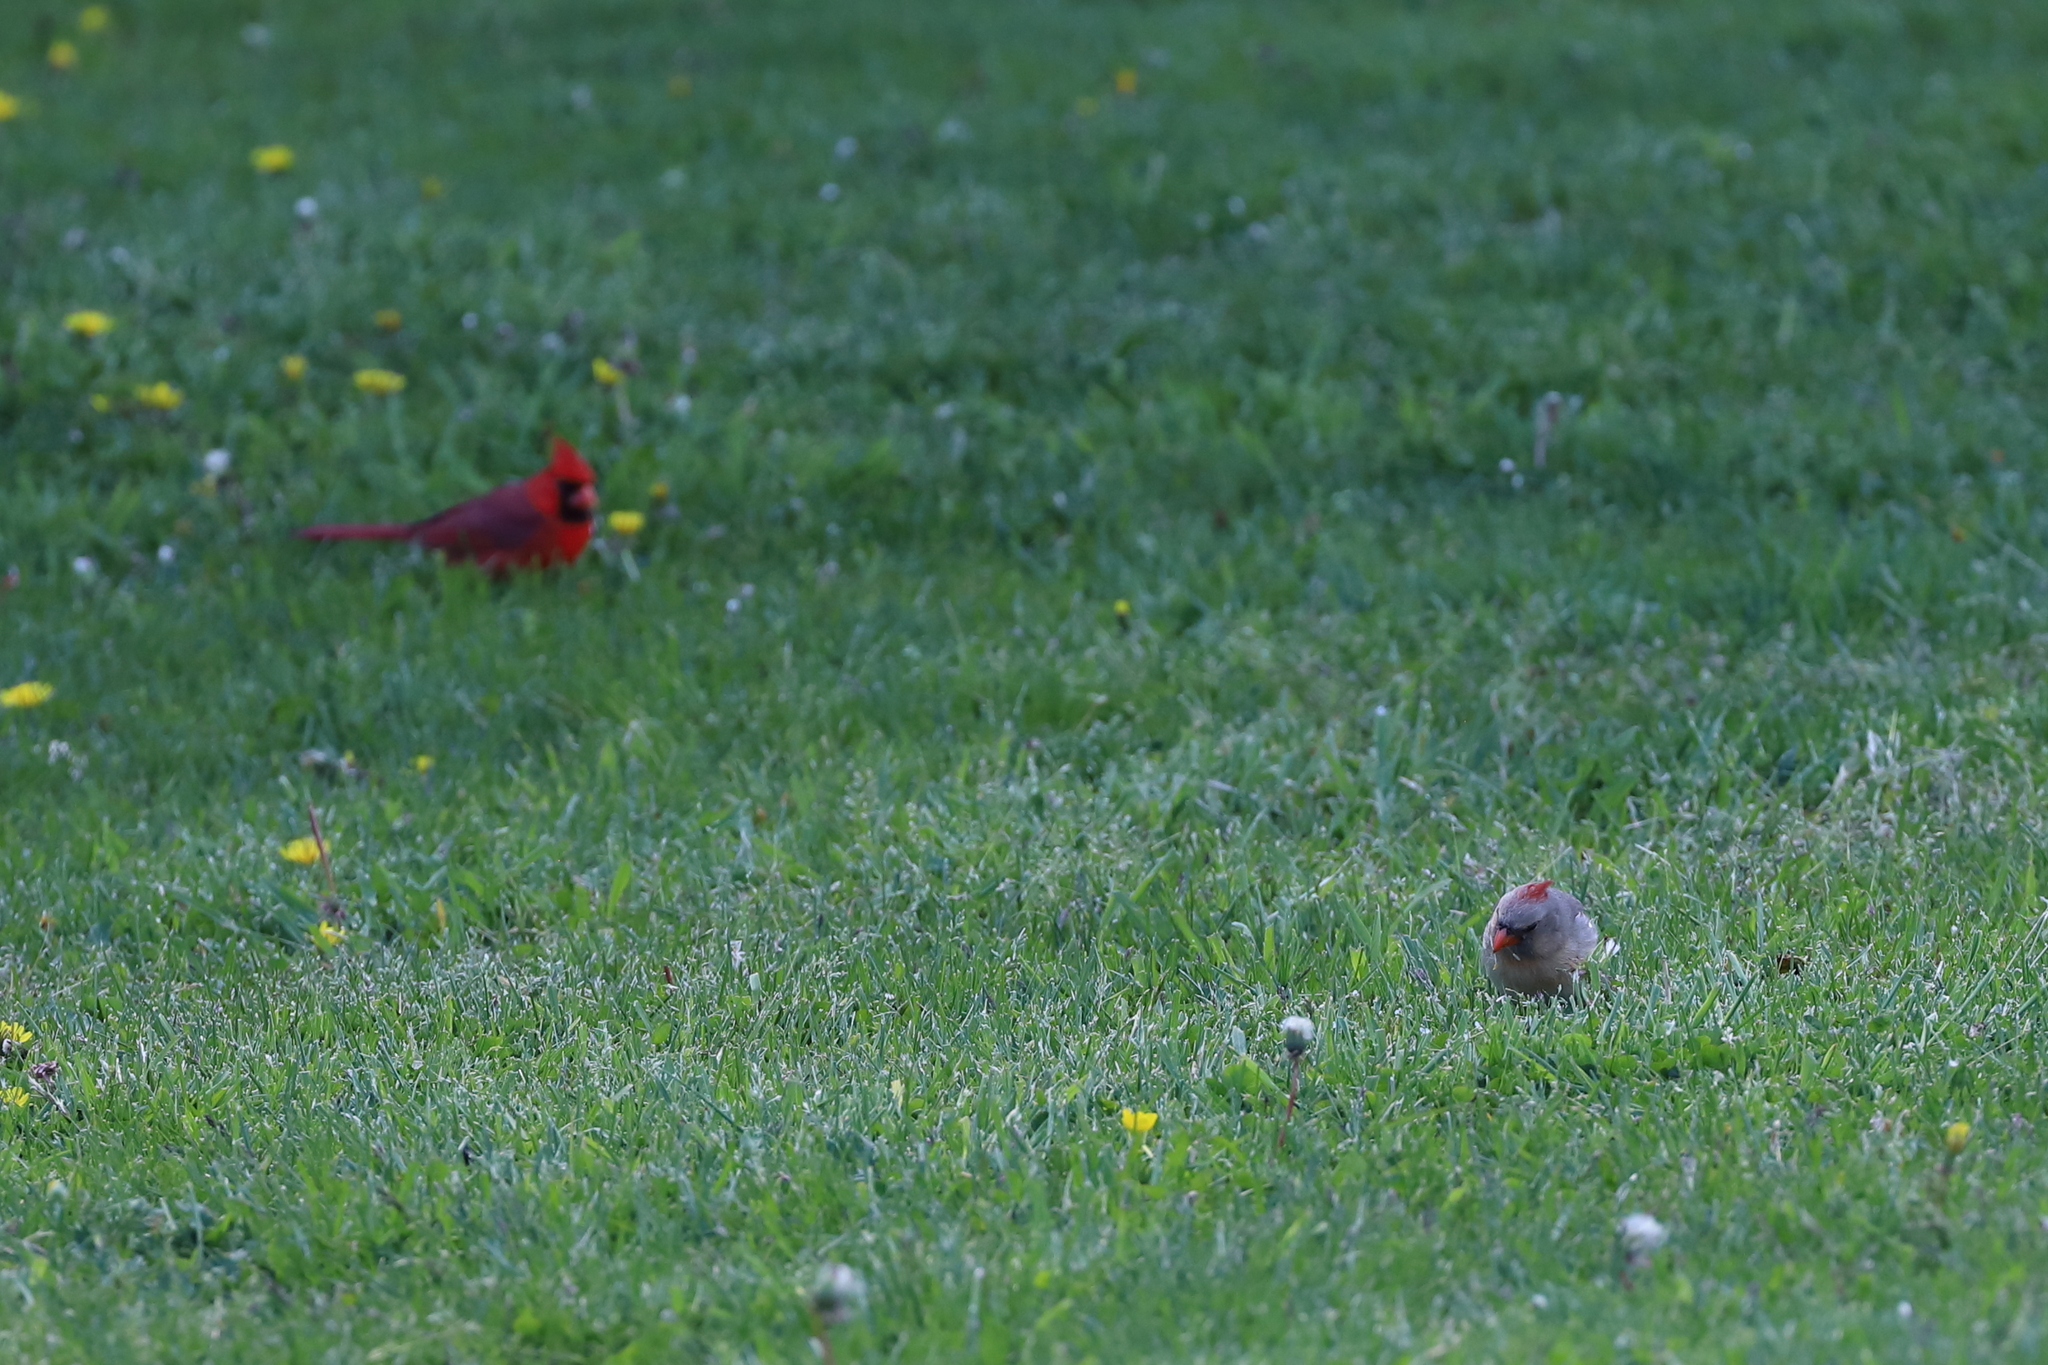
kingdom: Animalia
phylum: Chordata
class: Aves
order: Passeriformes
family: Cardinalidae
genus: Cardinalis
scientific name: Cardinalis cardinalis
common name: Northern cardinal
